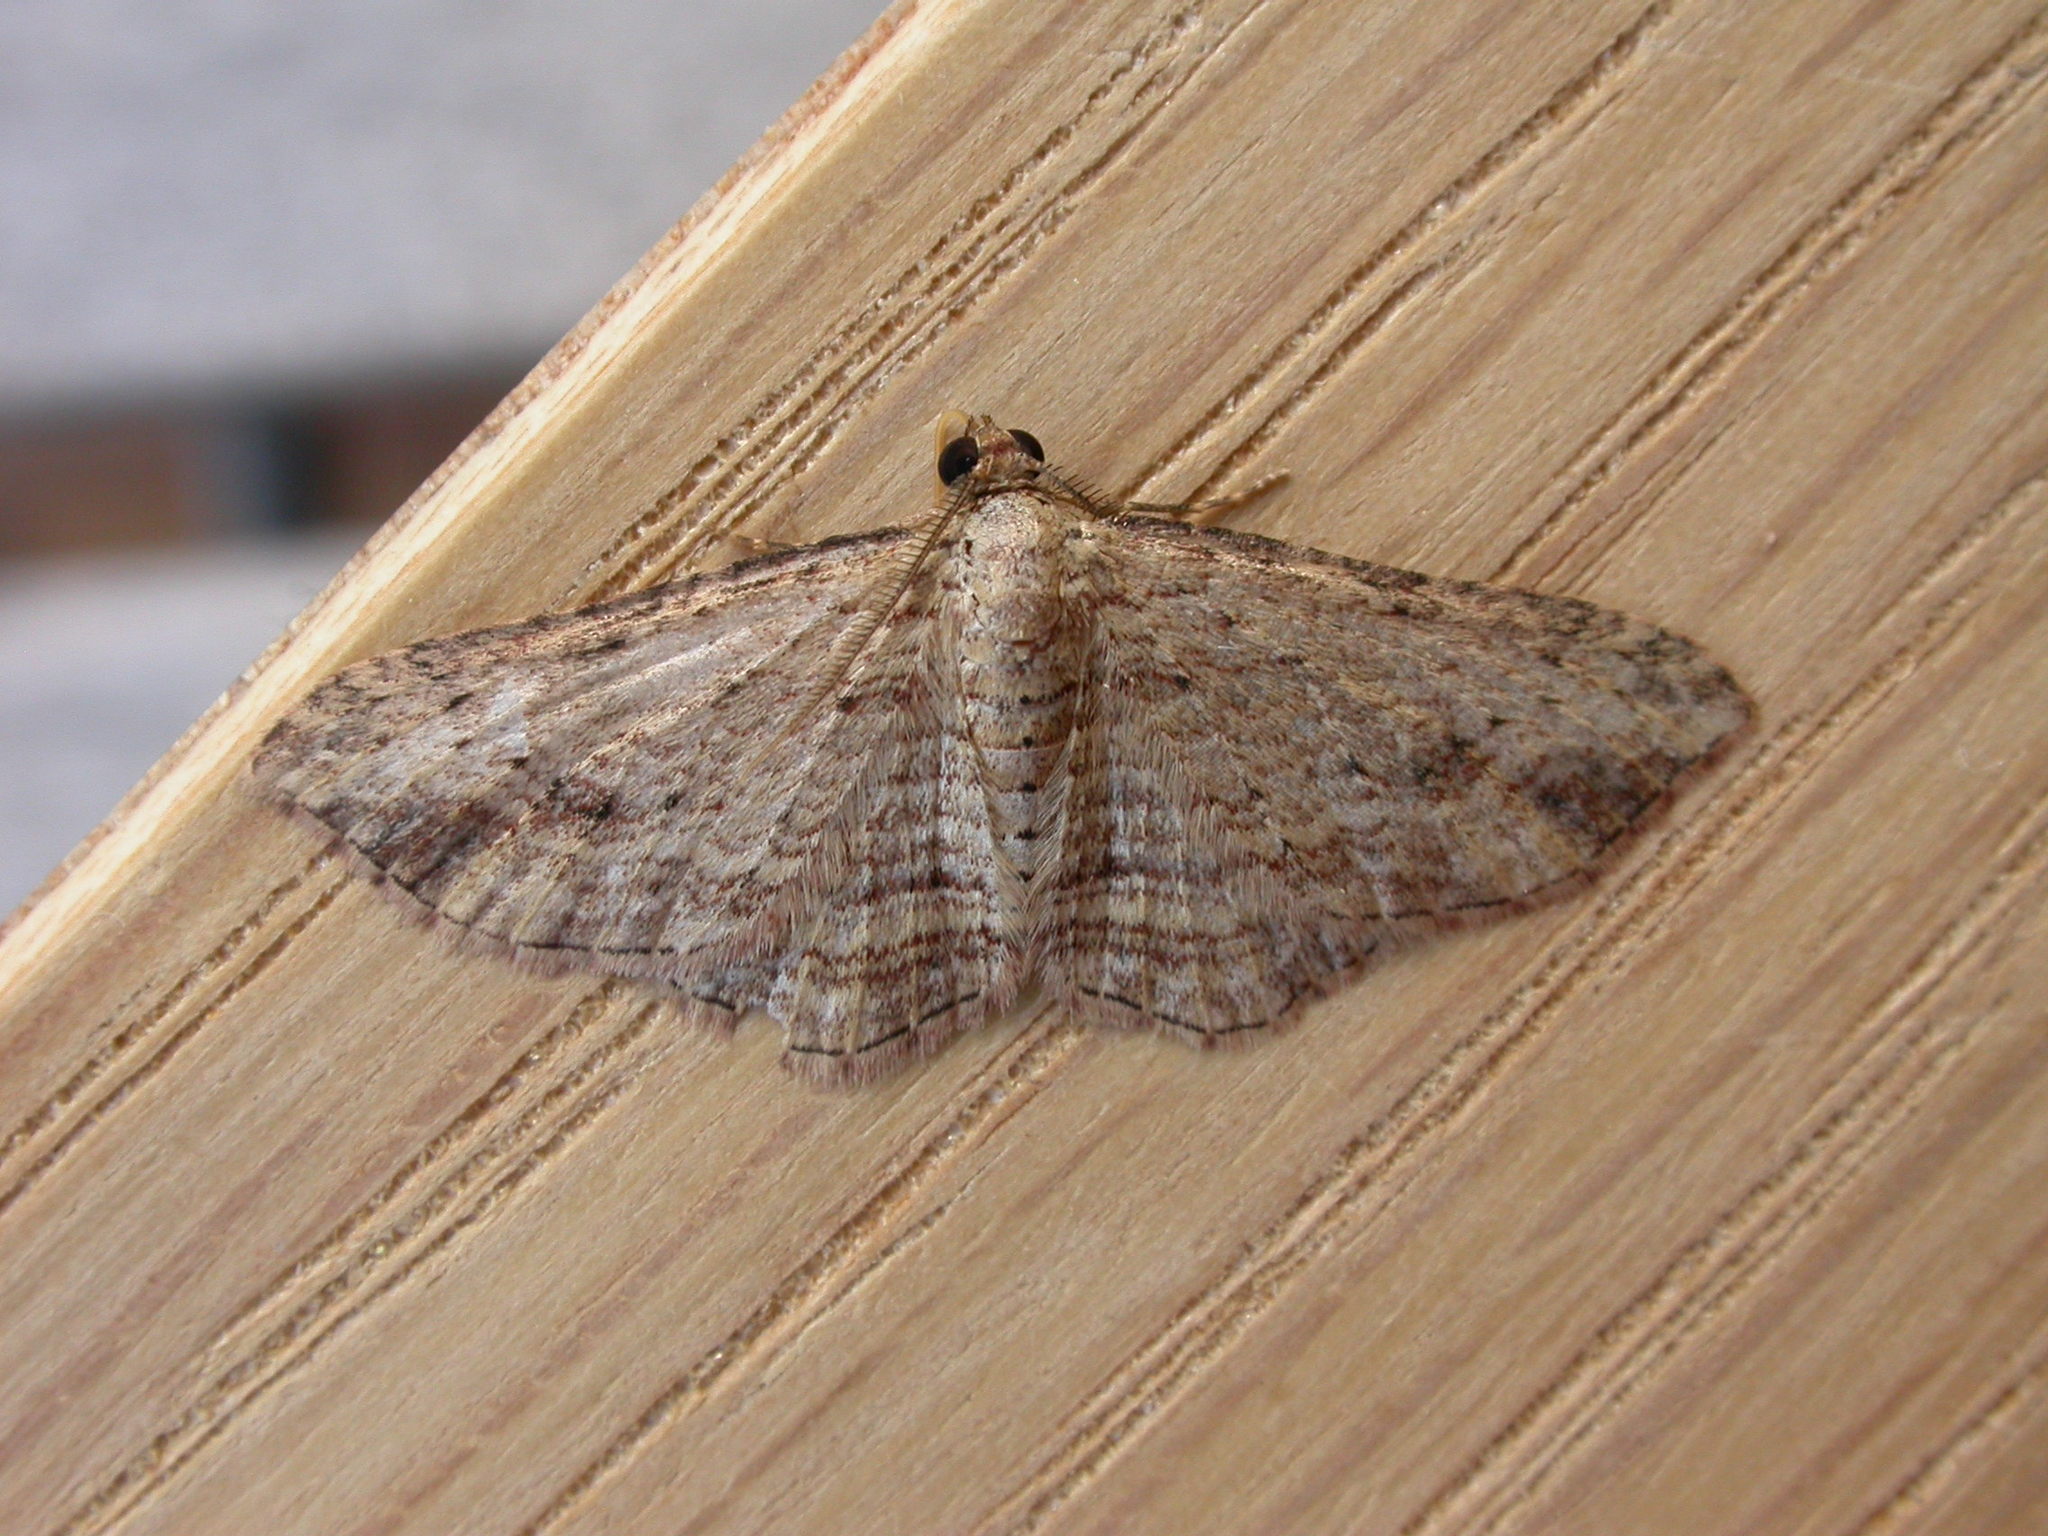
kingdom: Animalia
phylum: Arthropoda
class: Insecta
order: Lepidoptera
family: Geometridae
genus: Xanthorhoe
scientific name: Xanthorhoe anaspila
